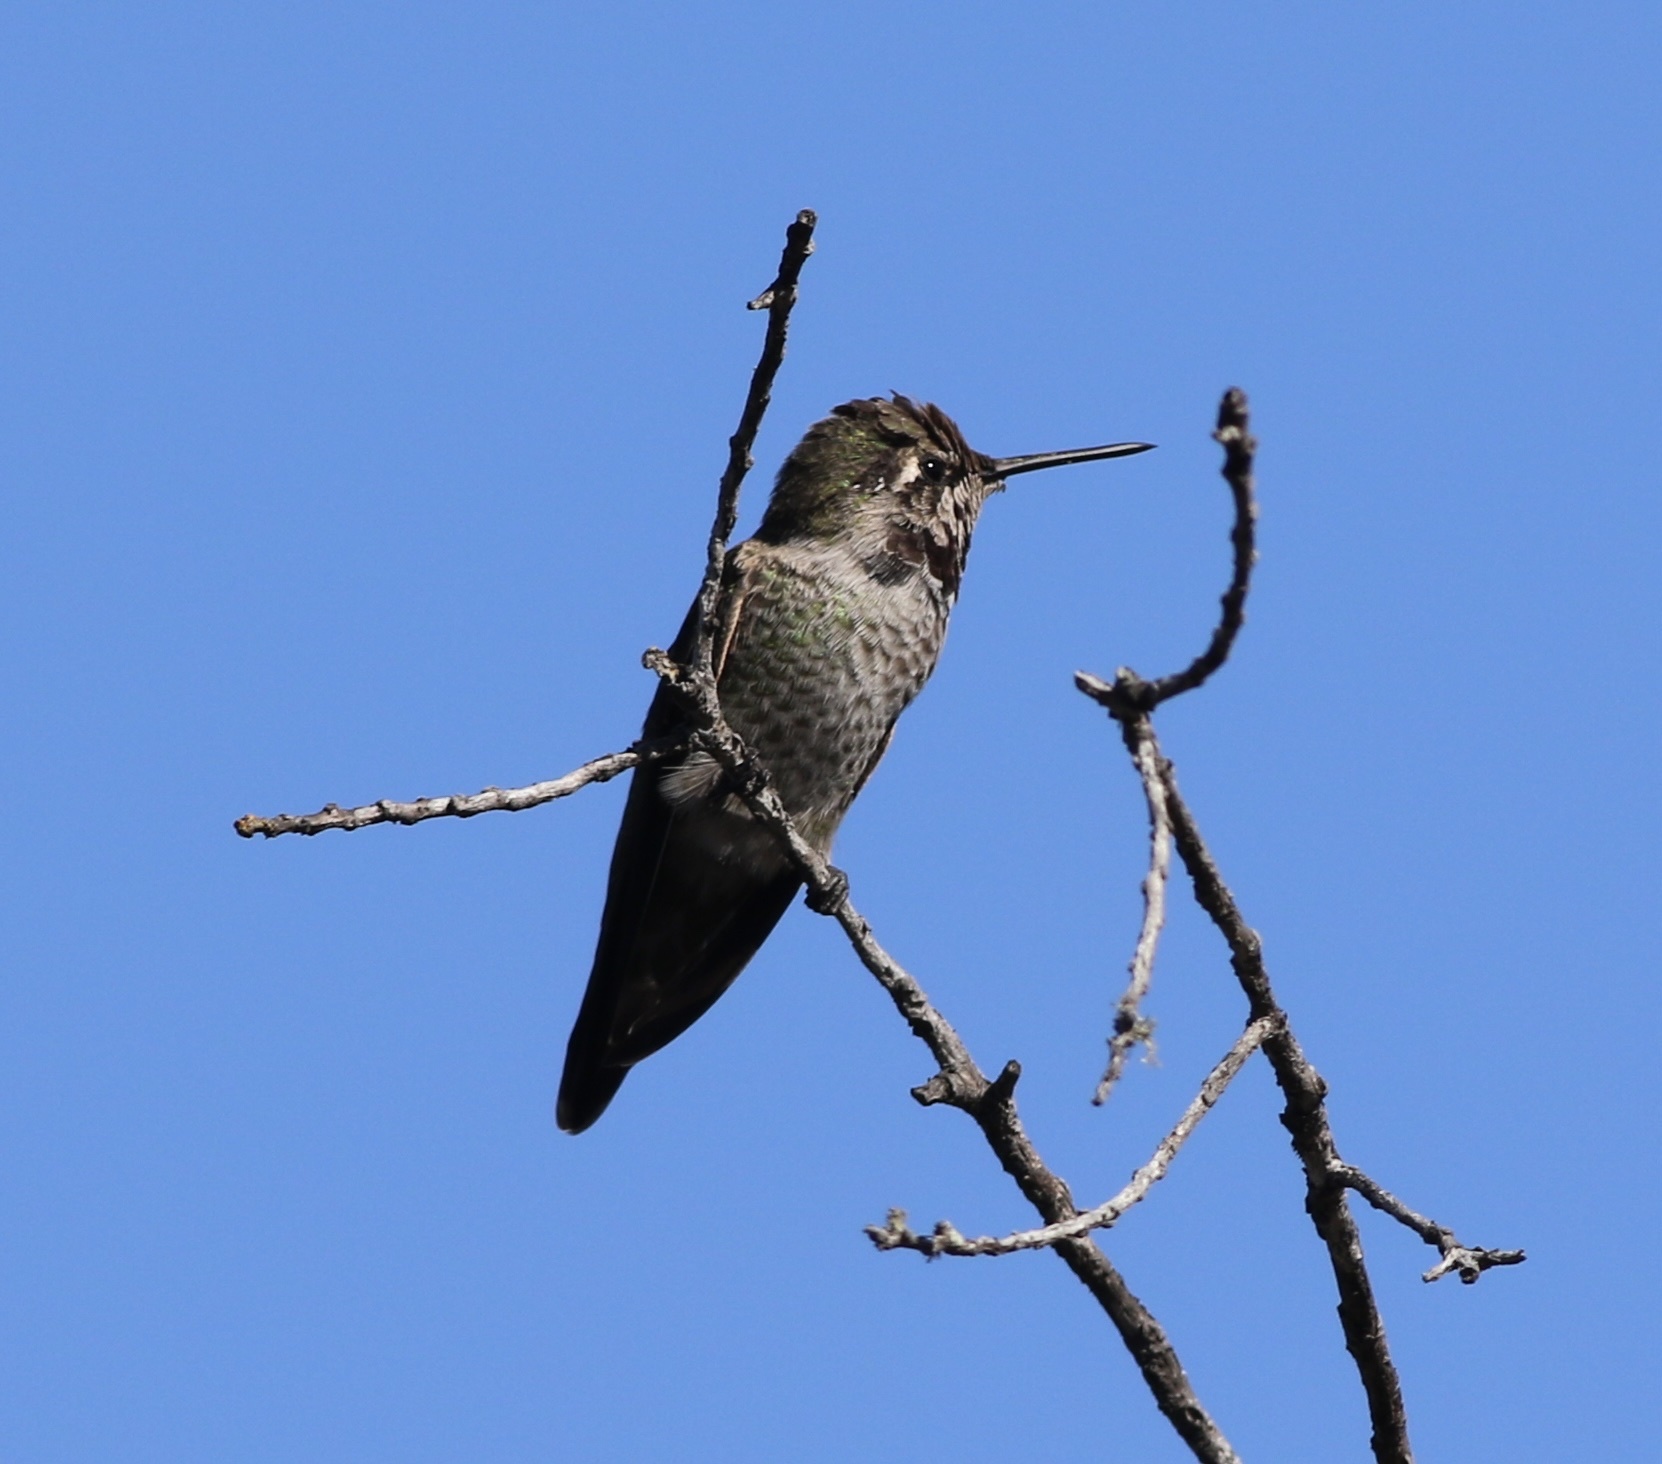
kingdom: Animalia
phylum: Chordata
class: Aves
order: Apodiformes
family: Trochilidae
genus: Calypte
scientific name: Calypte anna
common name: Anna's hummingbird
